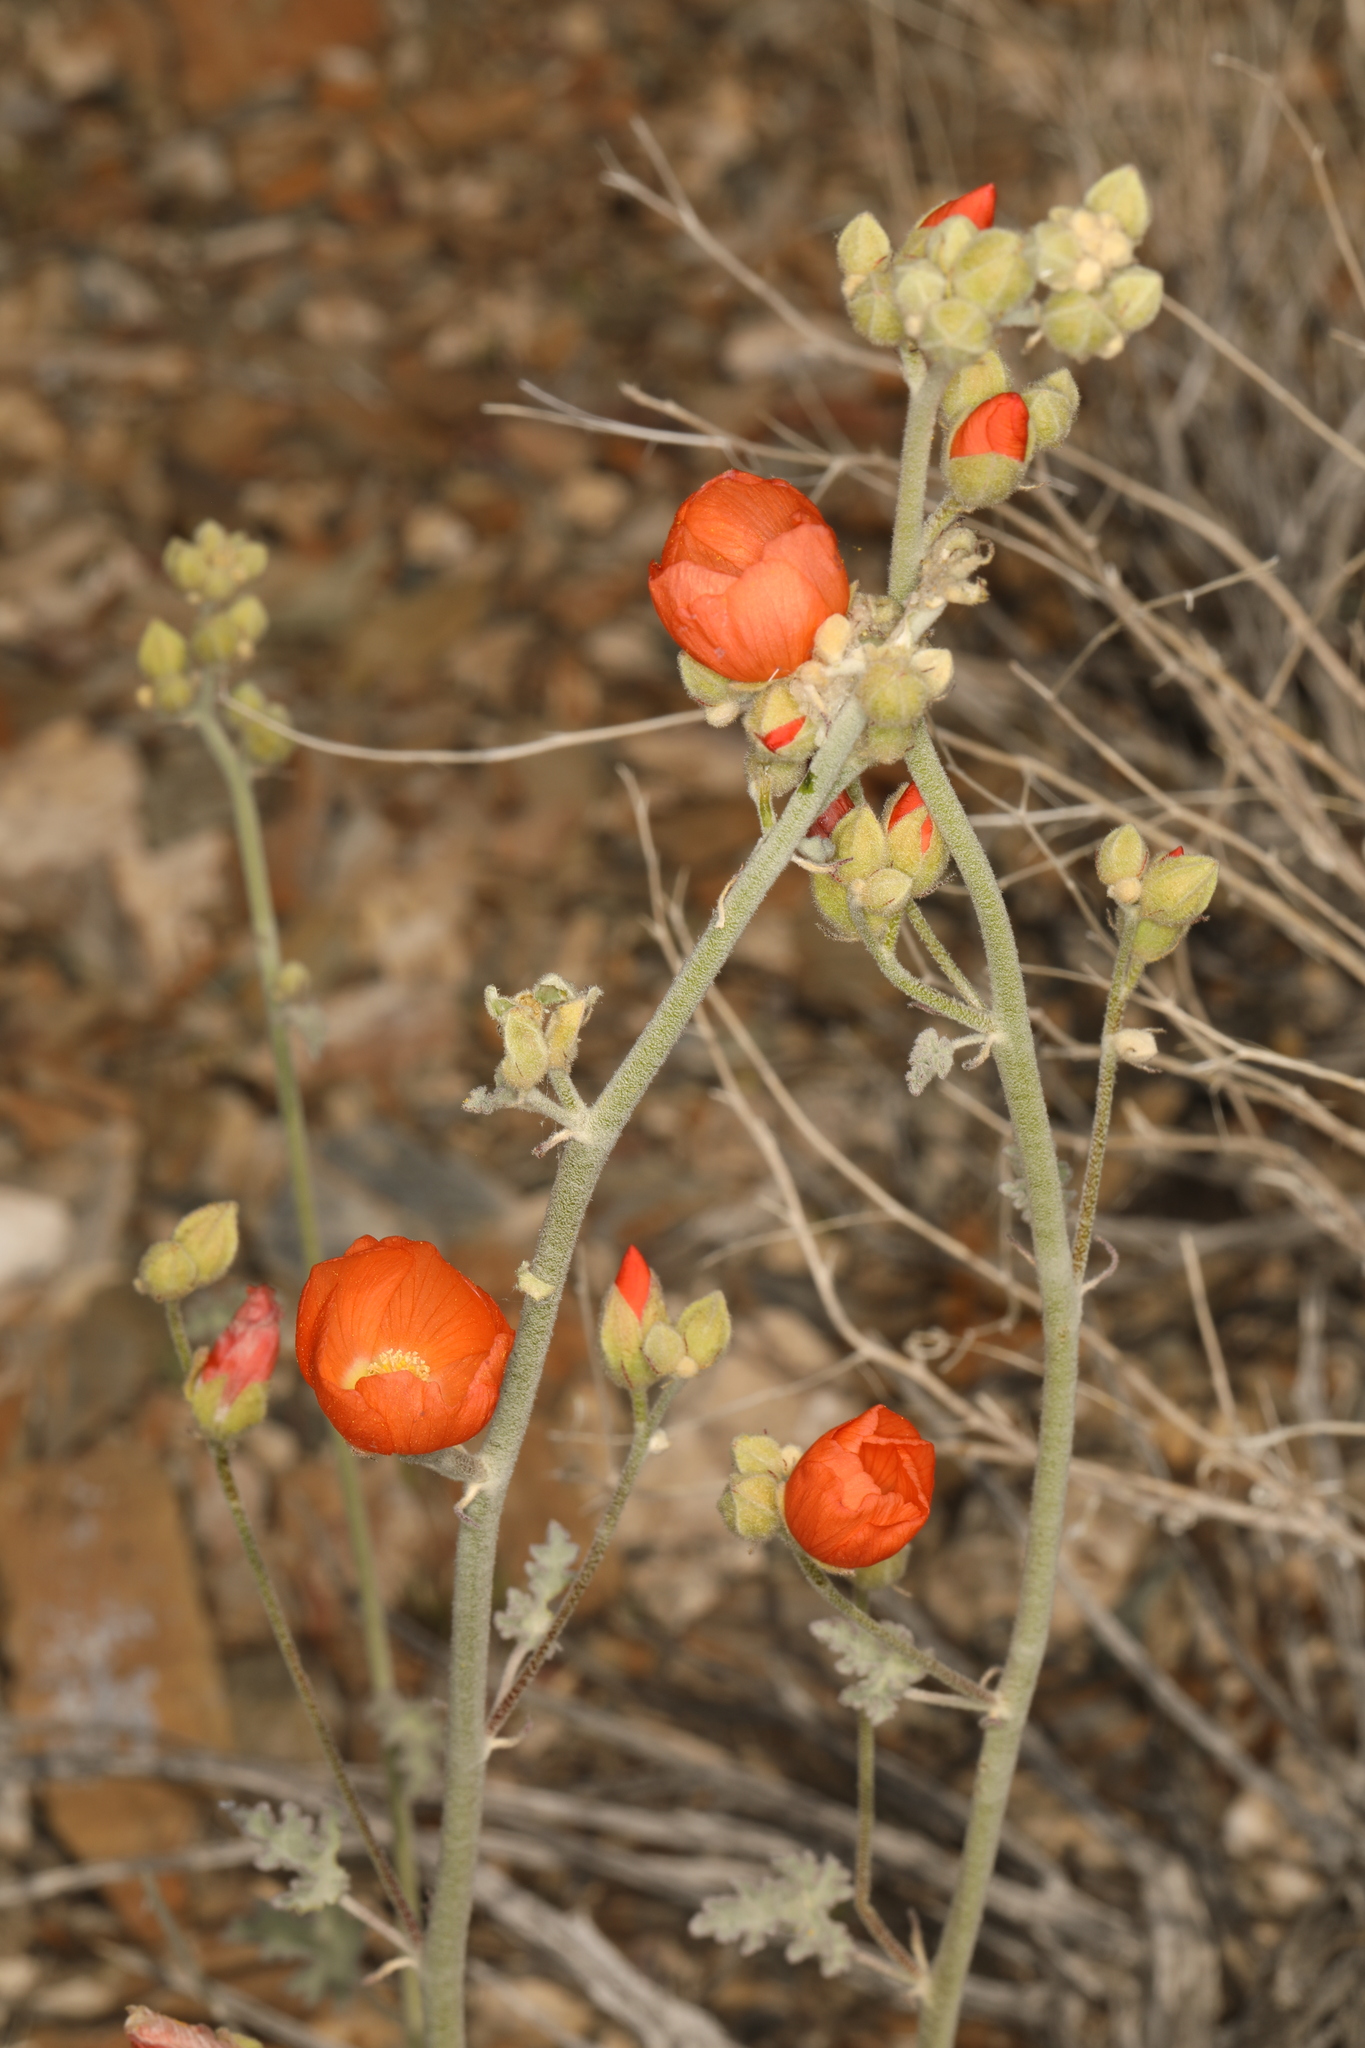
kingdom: Plantae
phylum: Tracheophyta
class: Magnoliopsida
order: Malvales
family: Malvaceae
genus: Sphaeralcea
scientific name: Sphaeralcea ambigua
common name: Apricot globe-mallow
